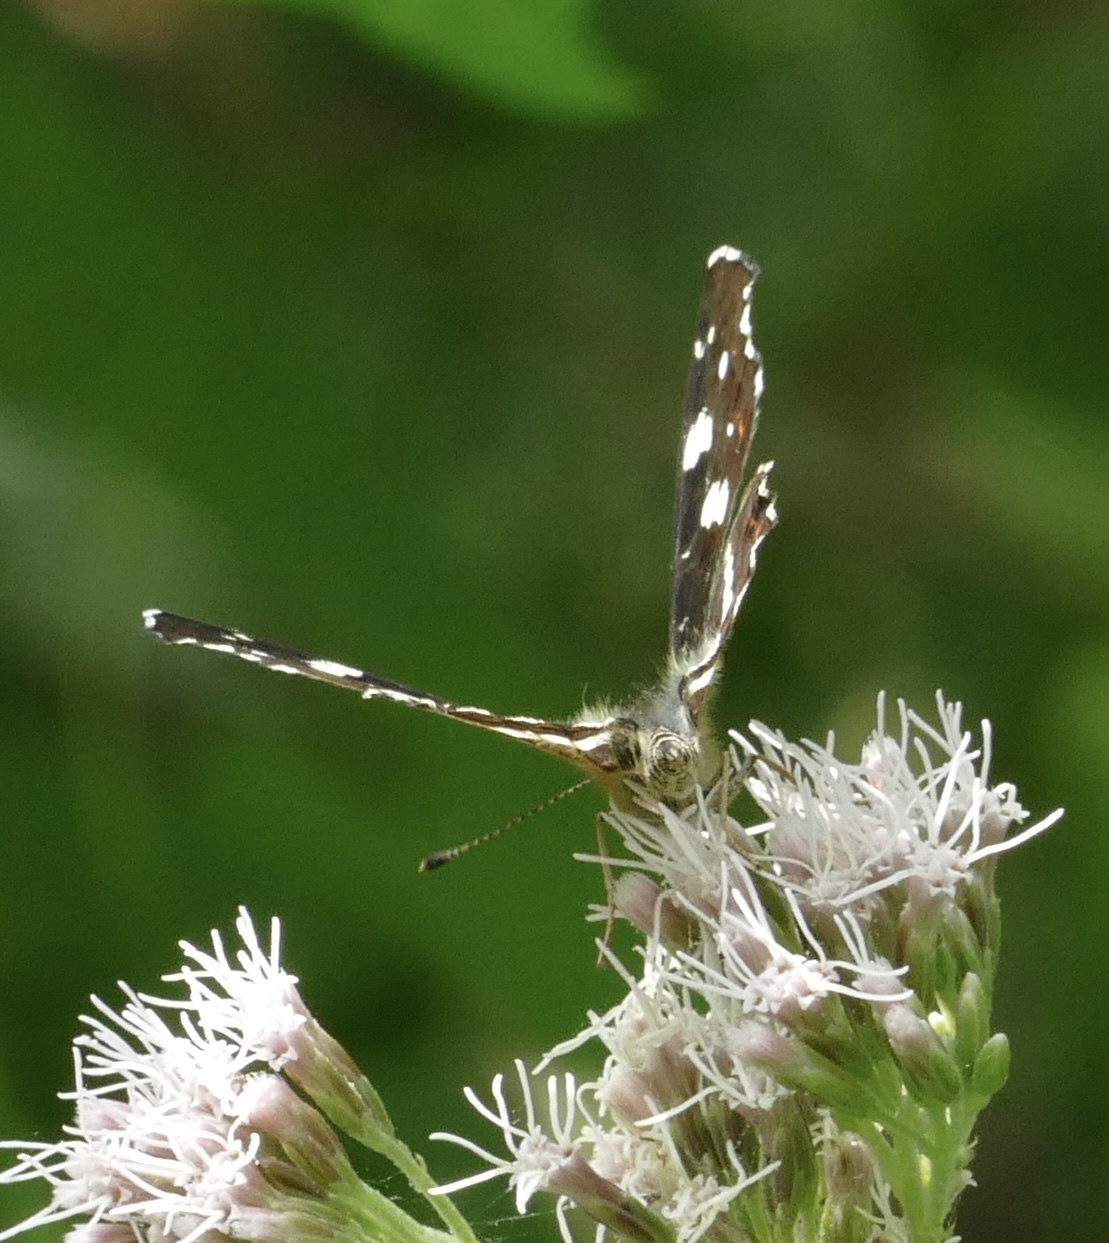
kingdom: Animalia
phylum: Arthropoda
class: Insecta
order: Lepidoptera
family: Nymphalidae
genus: Araschnia
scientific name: Araschnia levana
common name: Map butterfly
